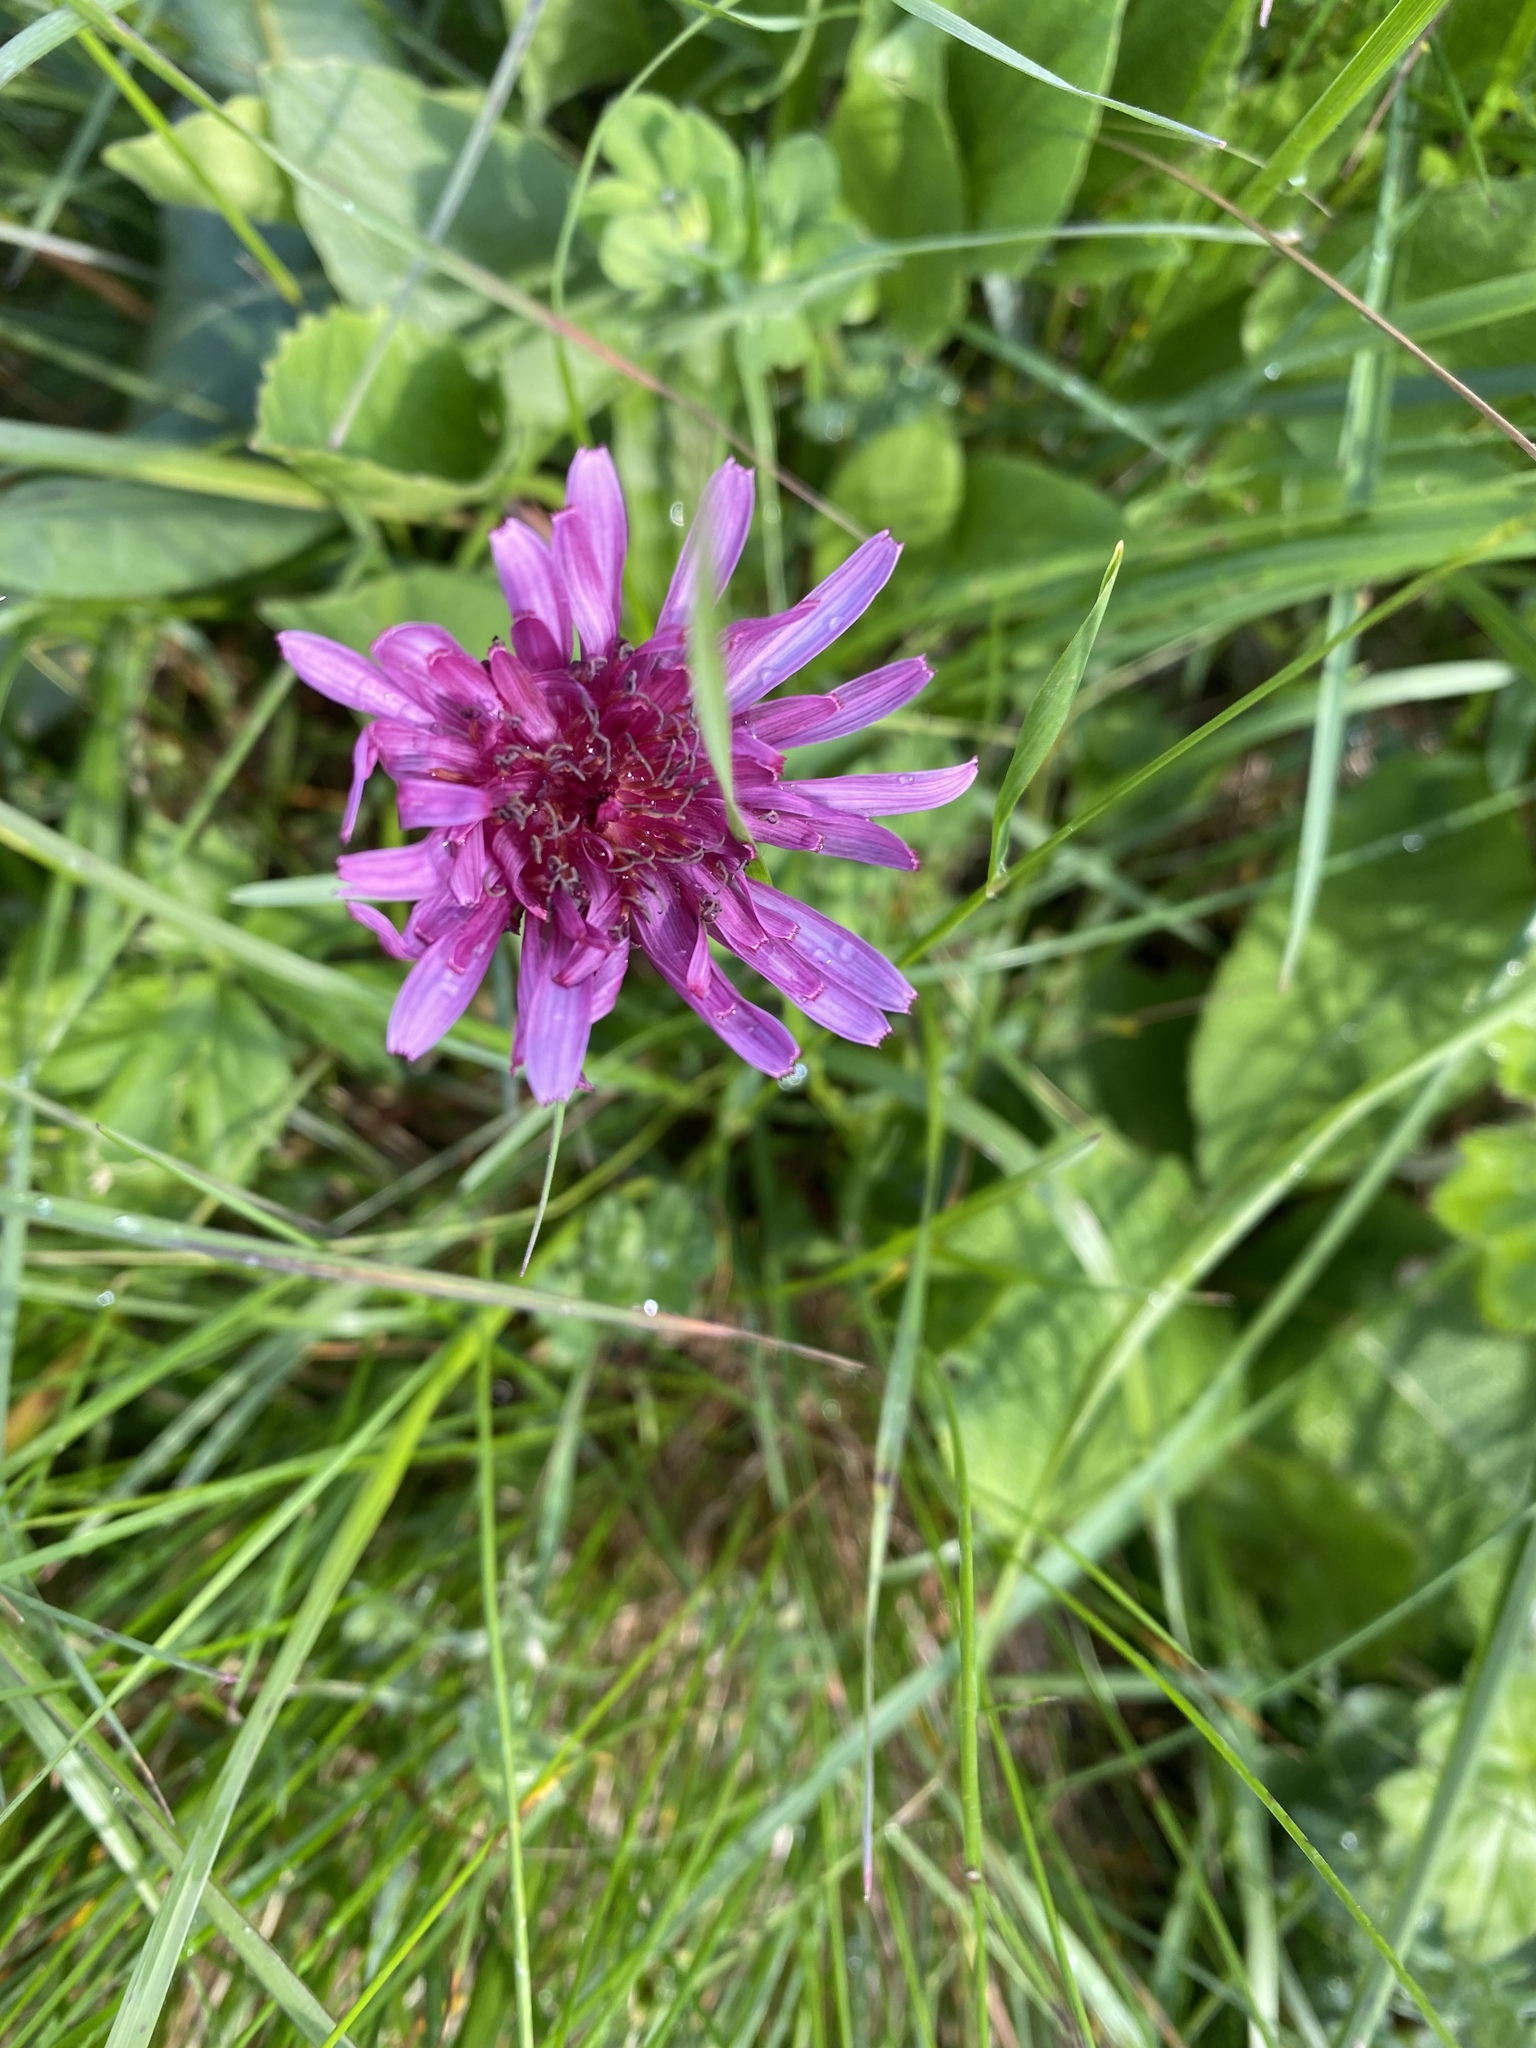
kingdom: Plantae
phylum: Tracheophyta
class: Magnoliopsida
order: Asterales
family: Asteraceae
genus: Taraxacum
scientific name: Taraxacum porphyranthum
